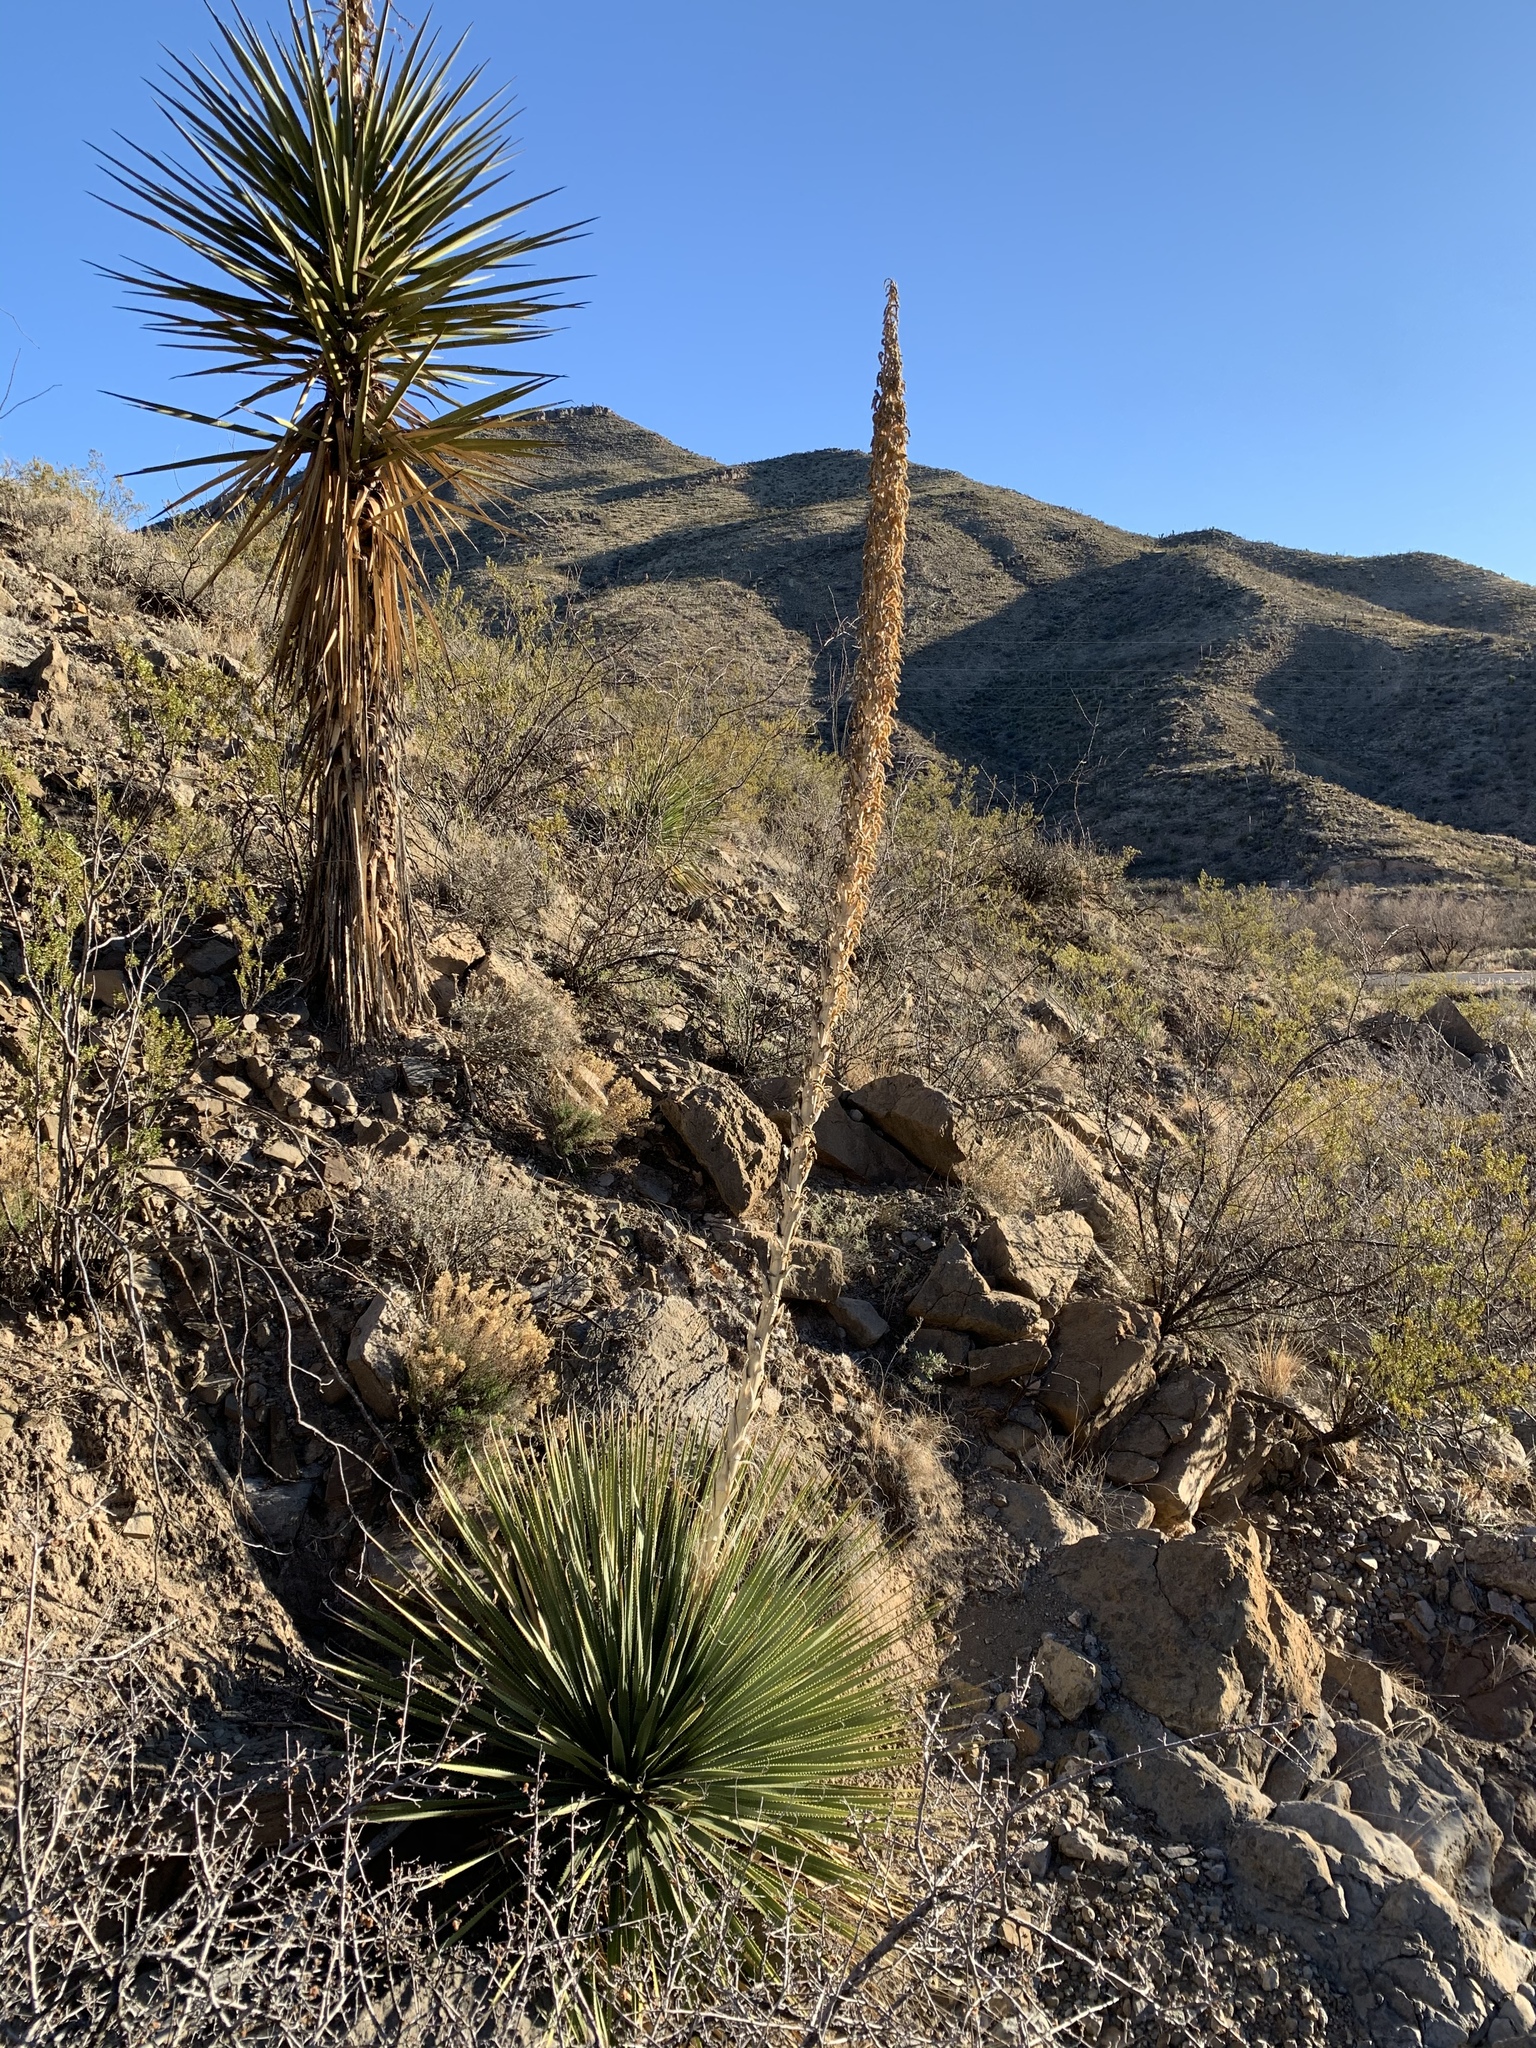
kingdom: Plantae
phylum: Tracheophyta
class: Liliopsida
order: Asparagales
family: Asparagaceae
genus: Dasylirion
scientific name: Dasylirion wheeleri
